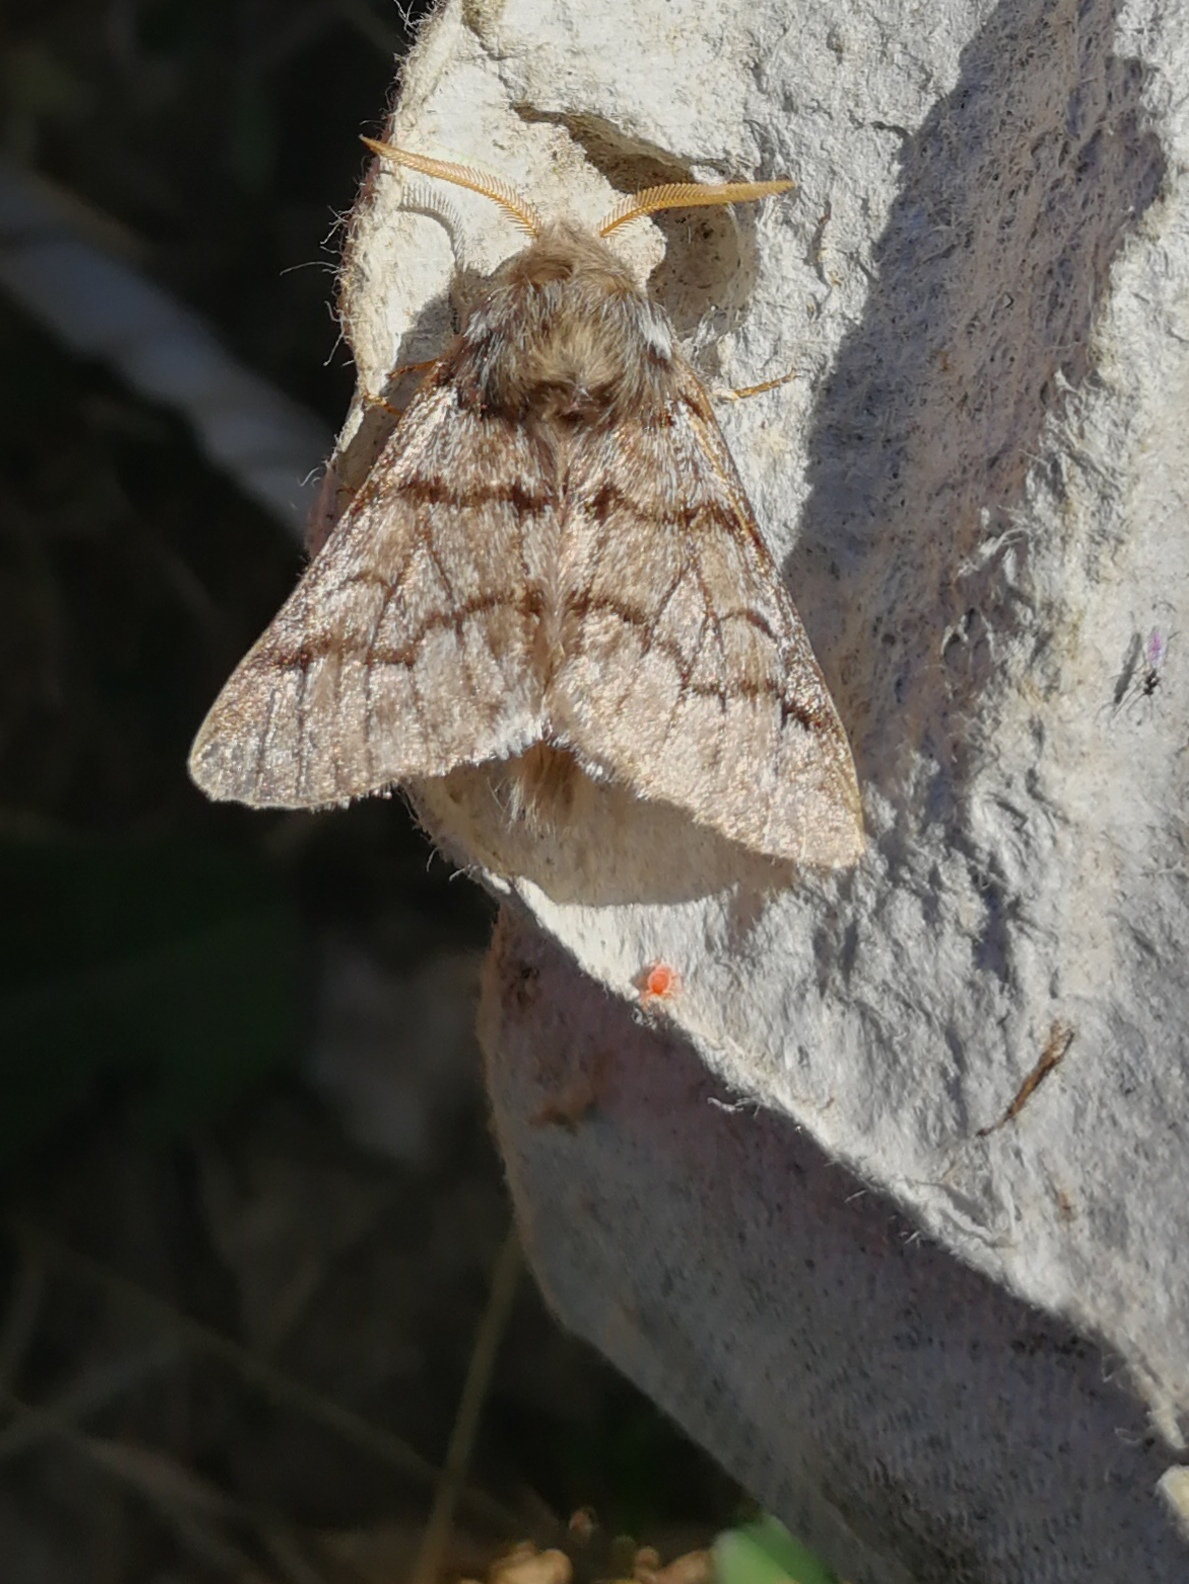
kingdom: Animalia
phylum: Arthropoda
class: Insecta
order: Lepidoptera
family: Notodontidae
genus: Thaumetopoea
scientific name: Thaumetopoea pityocampa
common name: Pine processionary
